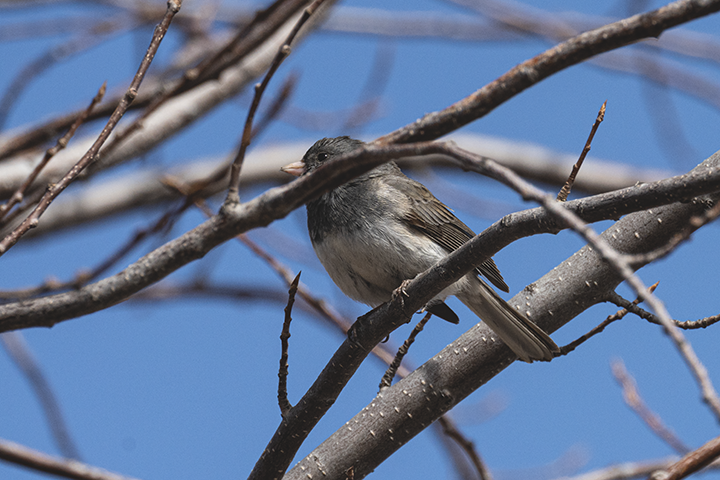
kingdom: Animalia
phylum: Chordata
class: Aves
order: Passeriformes
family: Passerellidae
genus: Junco
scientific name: Junco hyemalis
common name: Dark-eyed junco
